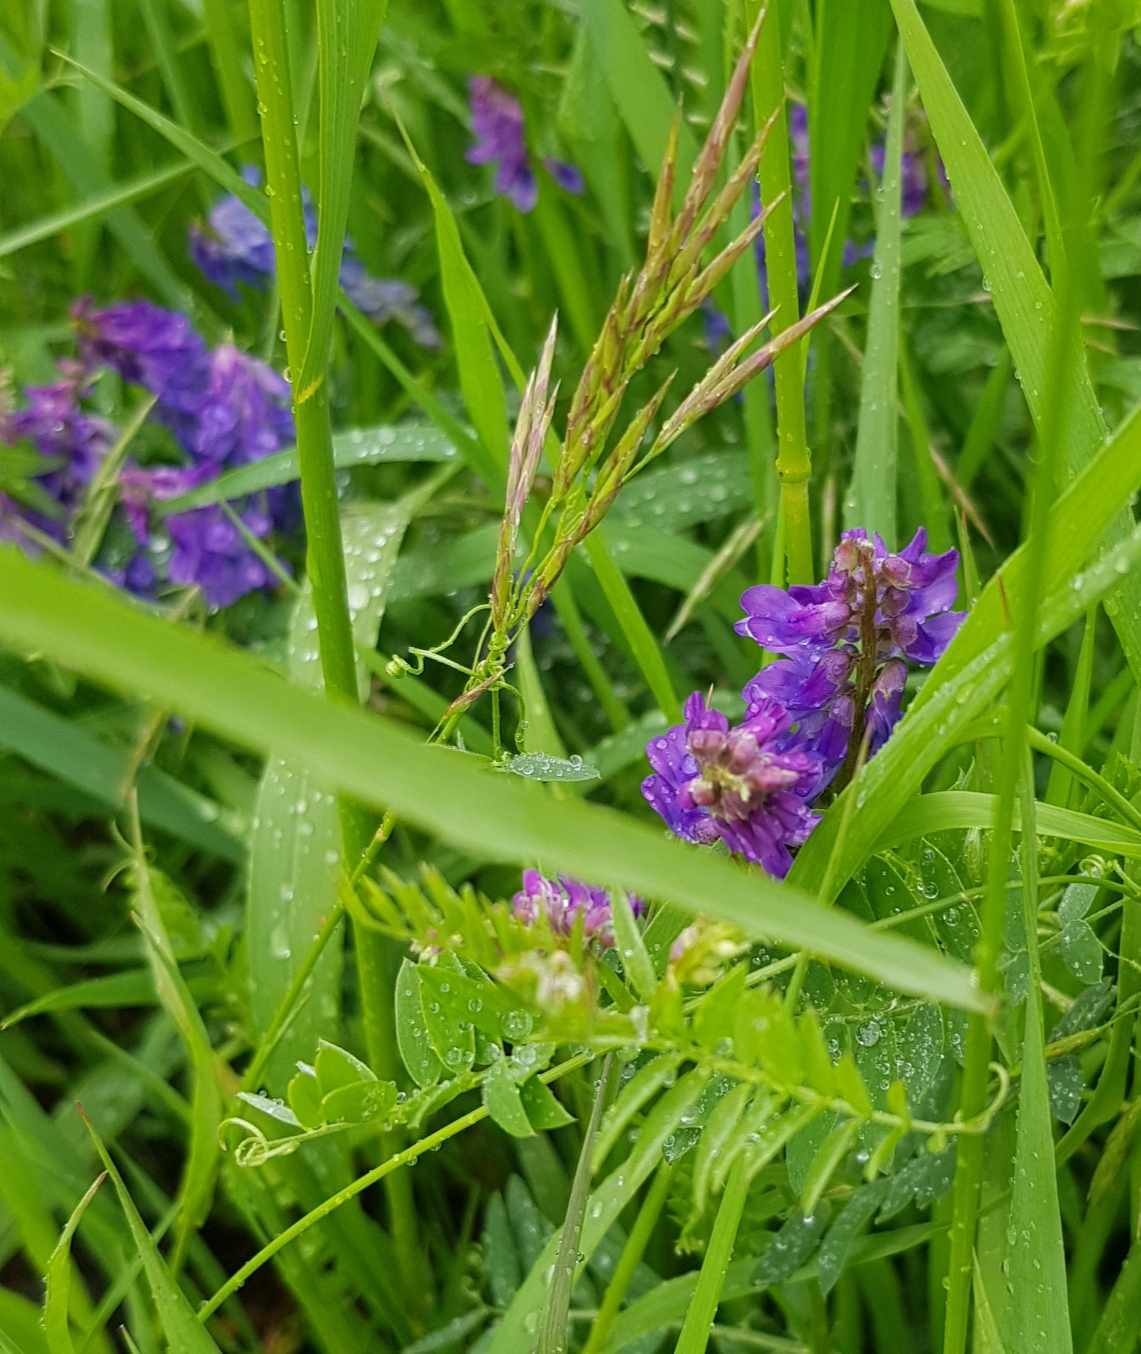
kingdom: Plantae
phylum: Tracheophyta
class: Magnoliopsida
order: Fabales
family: Fabaceae
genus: Vicia
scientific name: Vicia cracca
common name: Bird vetch
